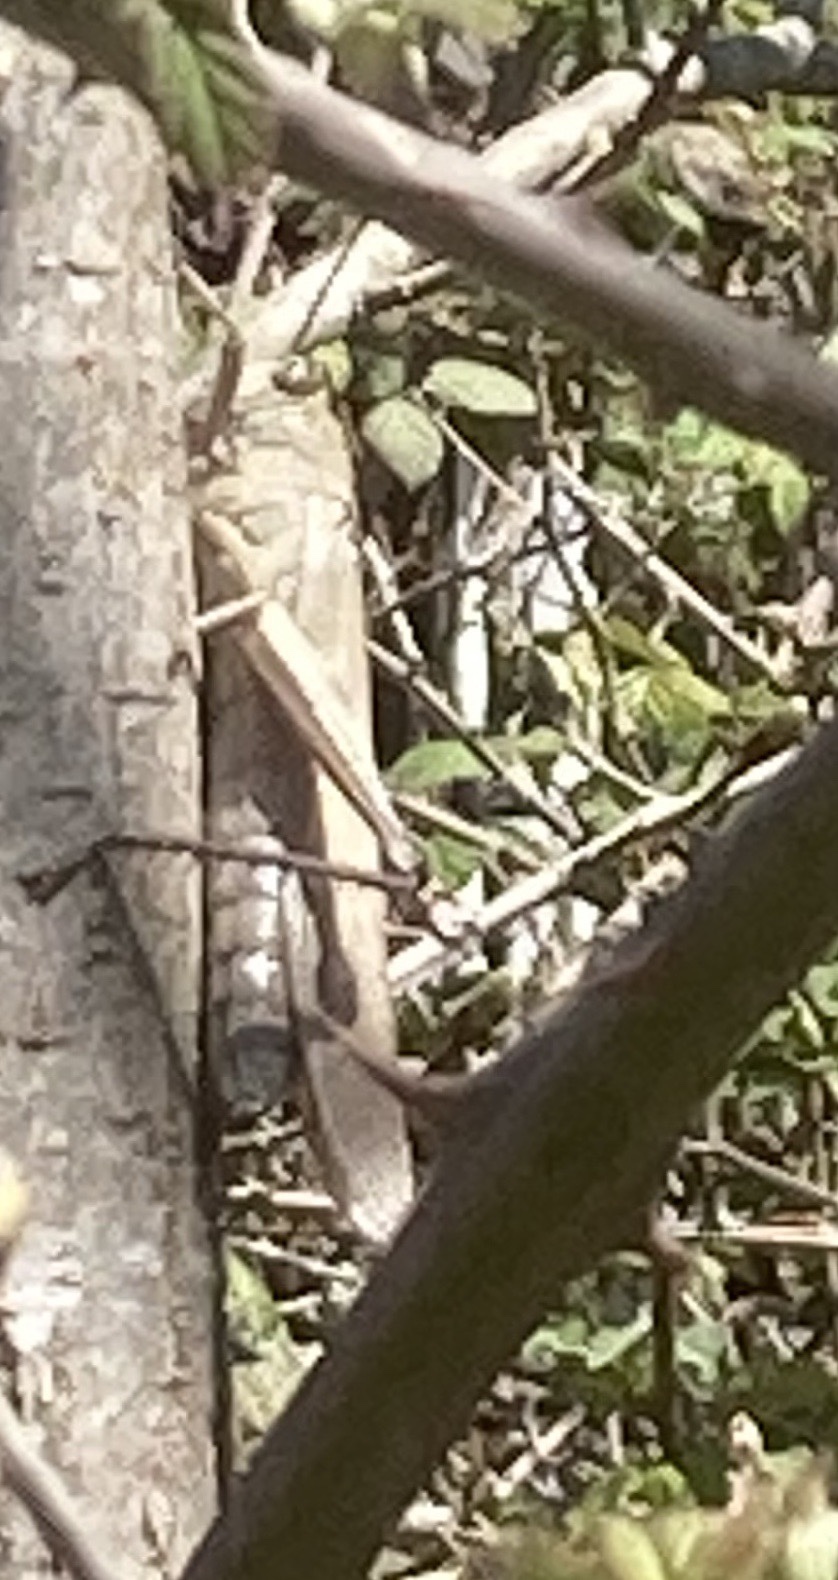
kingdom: Animalia
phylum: Arthropoda
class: Insecta
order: Orthoptera
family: Acrididae
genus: Anacridium
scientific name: Anacridium aegyptium
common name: Egyptian grasshopper
